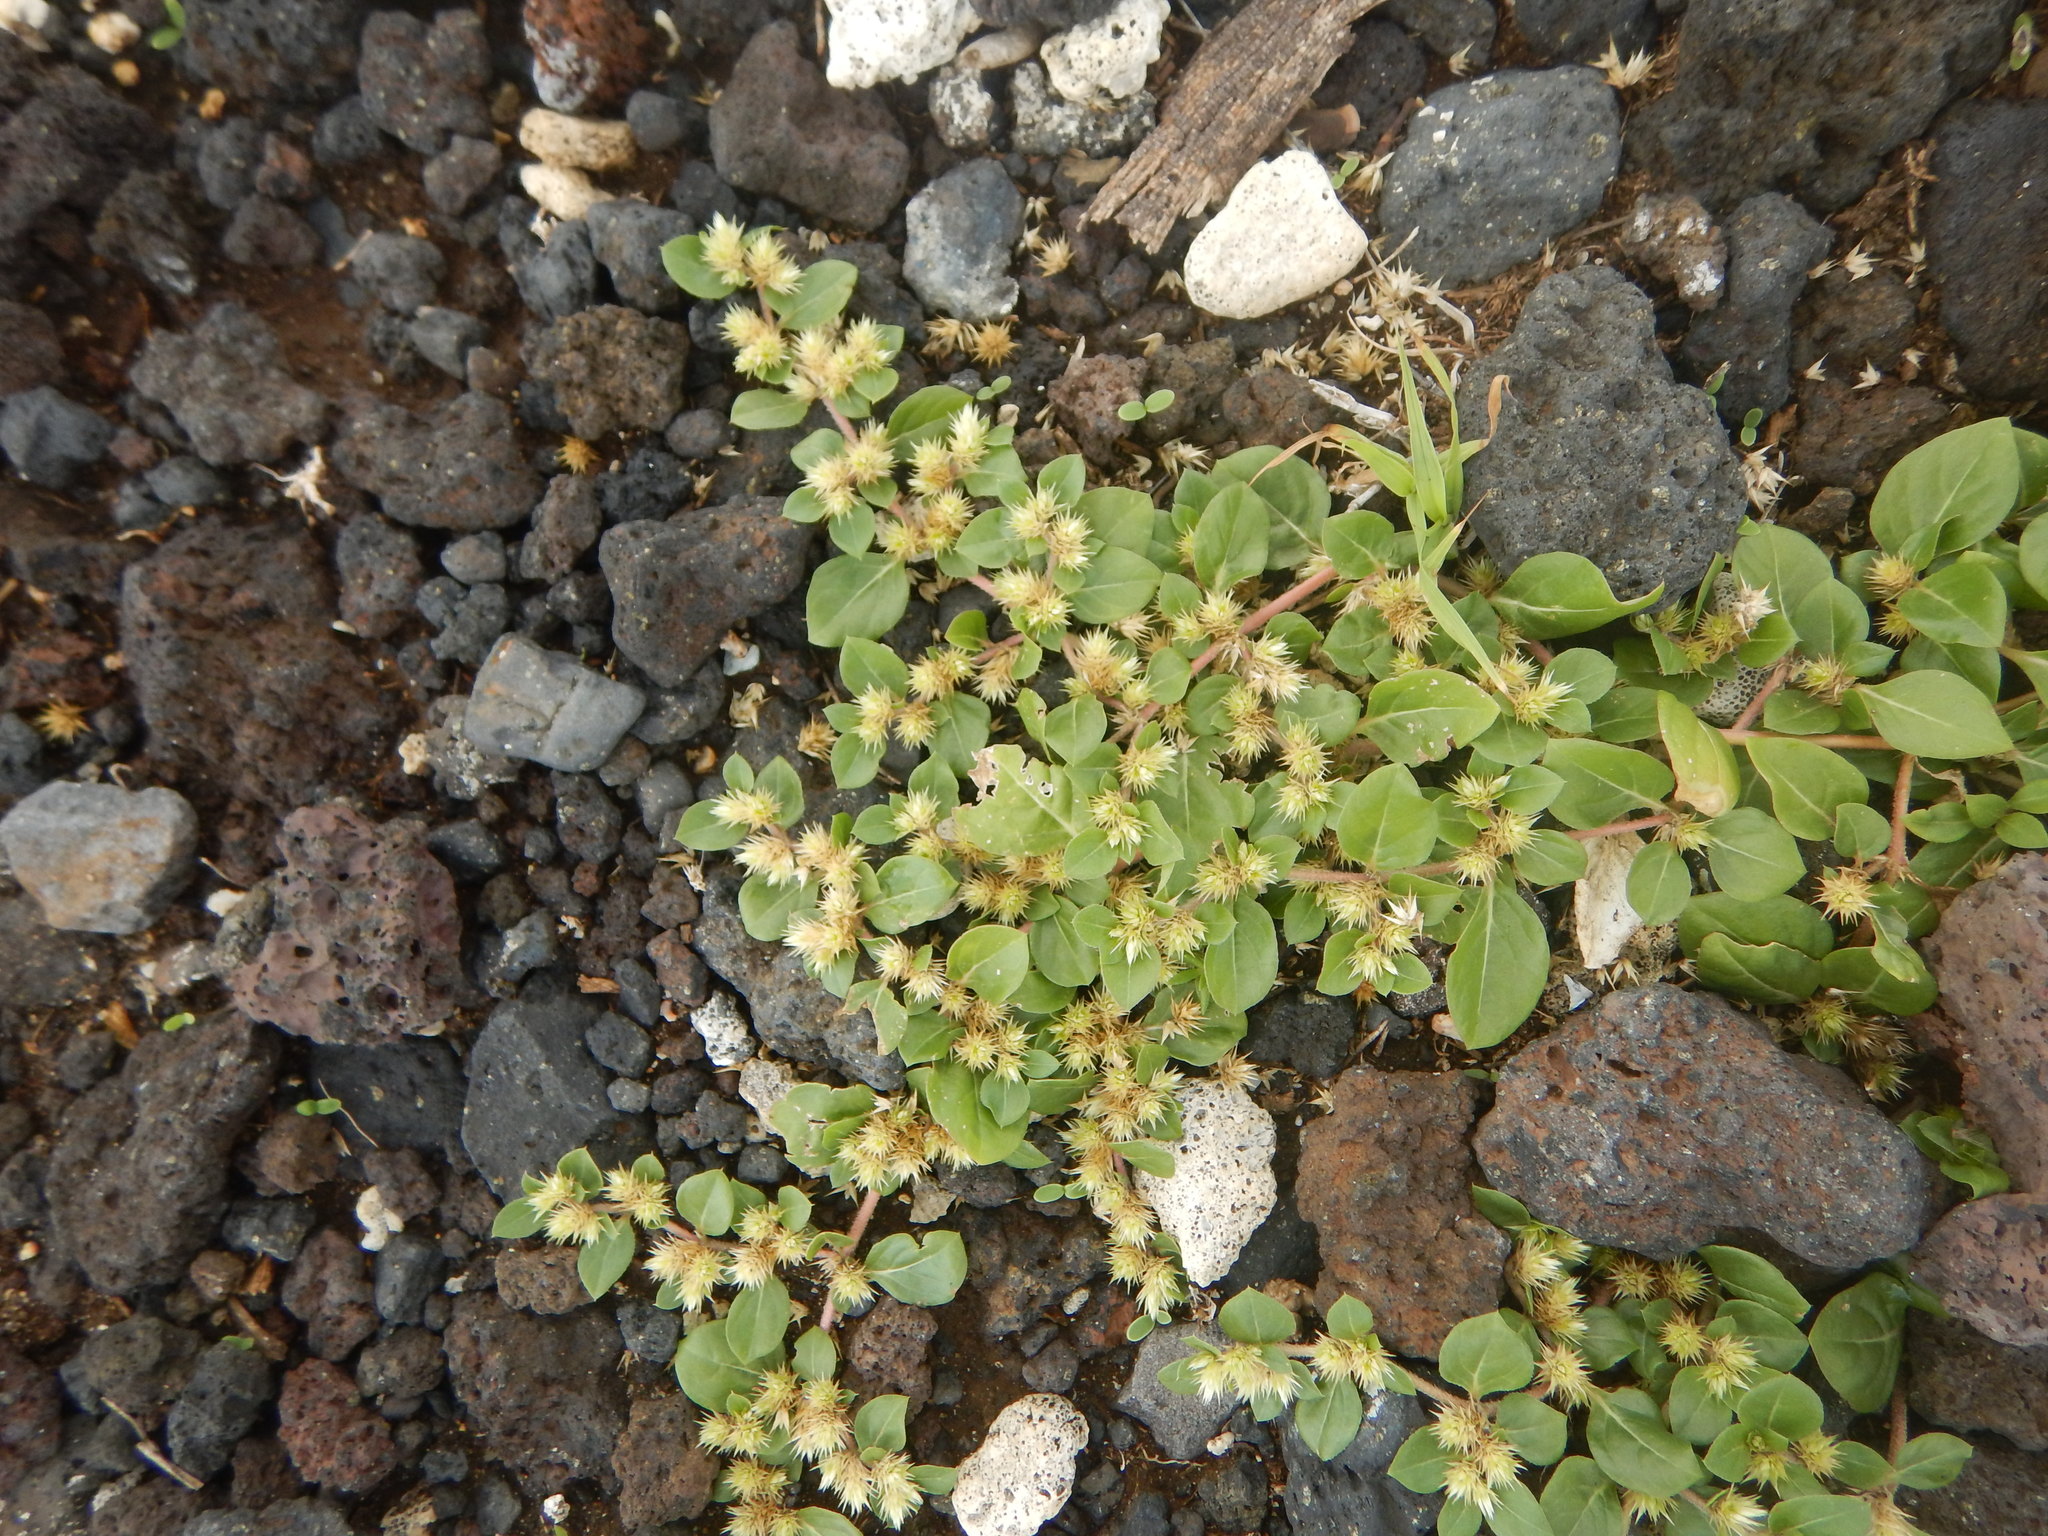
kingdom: Plantae
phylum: Tracheophyta
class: Magnoliopsida
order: Caryophyllales
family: Amaranthaceae
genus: Alternanthera
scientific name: Alternanthera pungens
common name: Khakiweed
